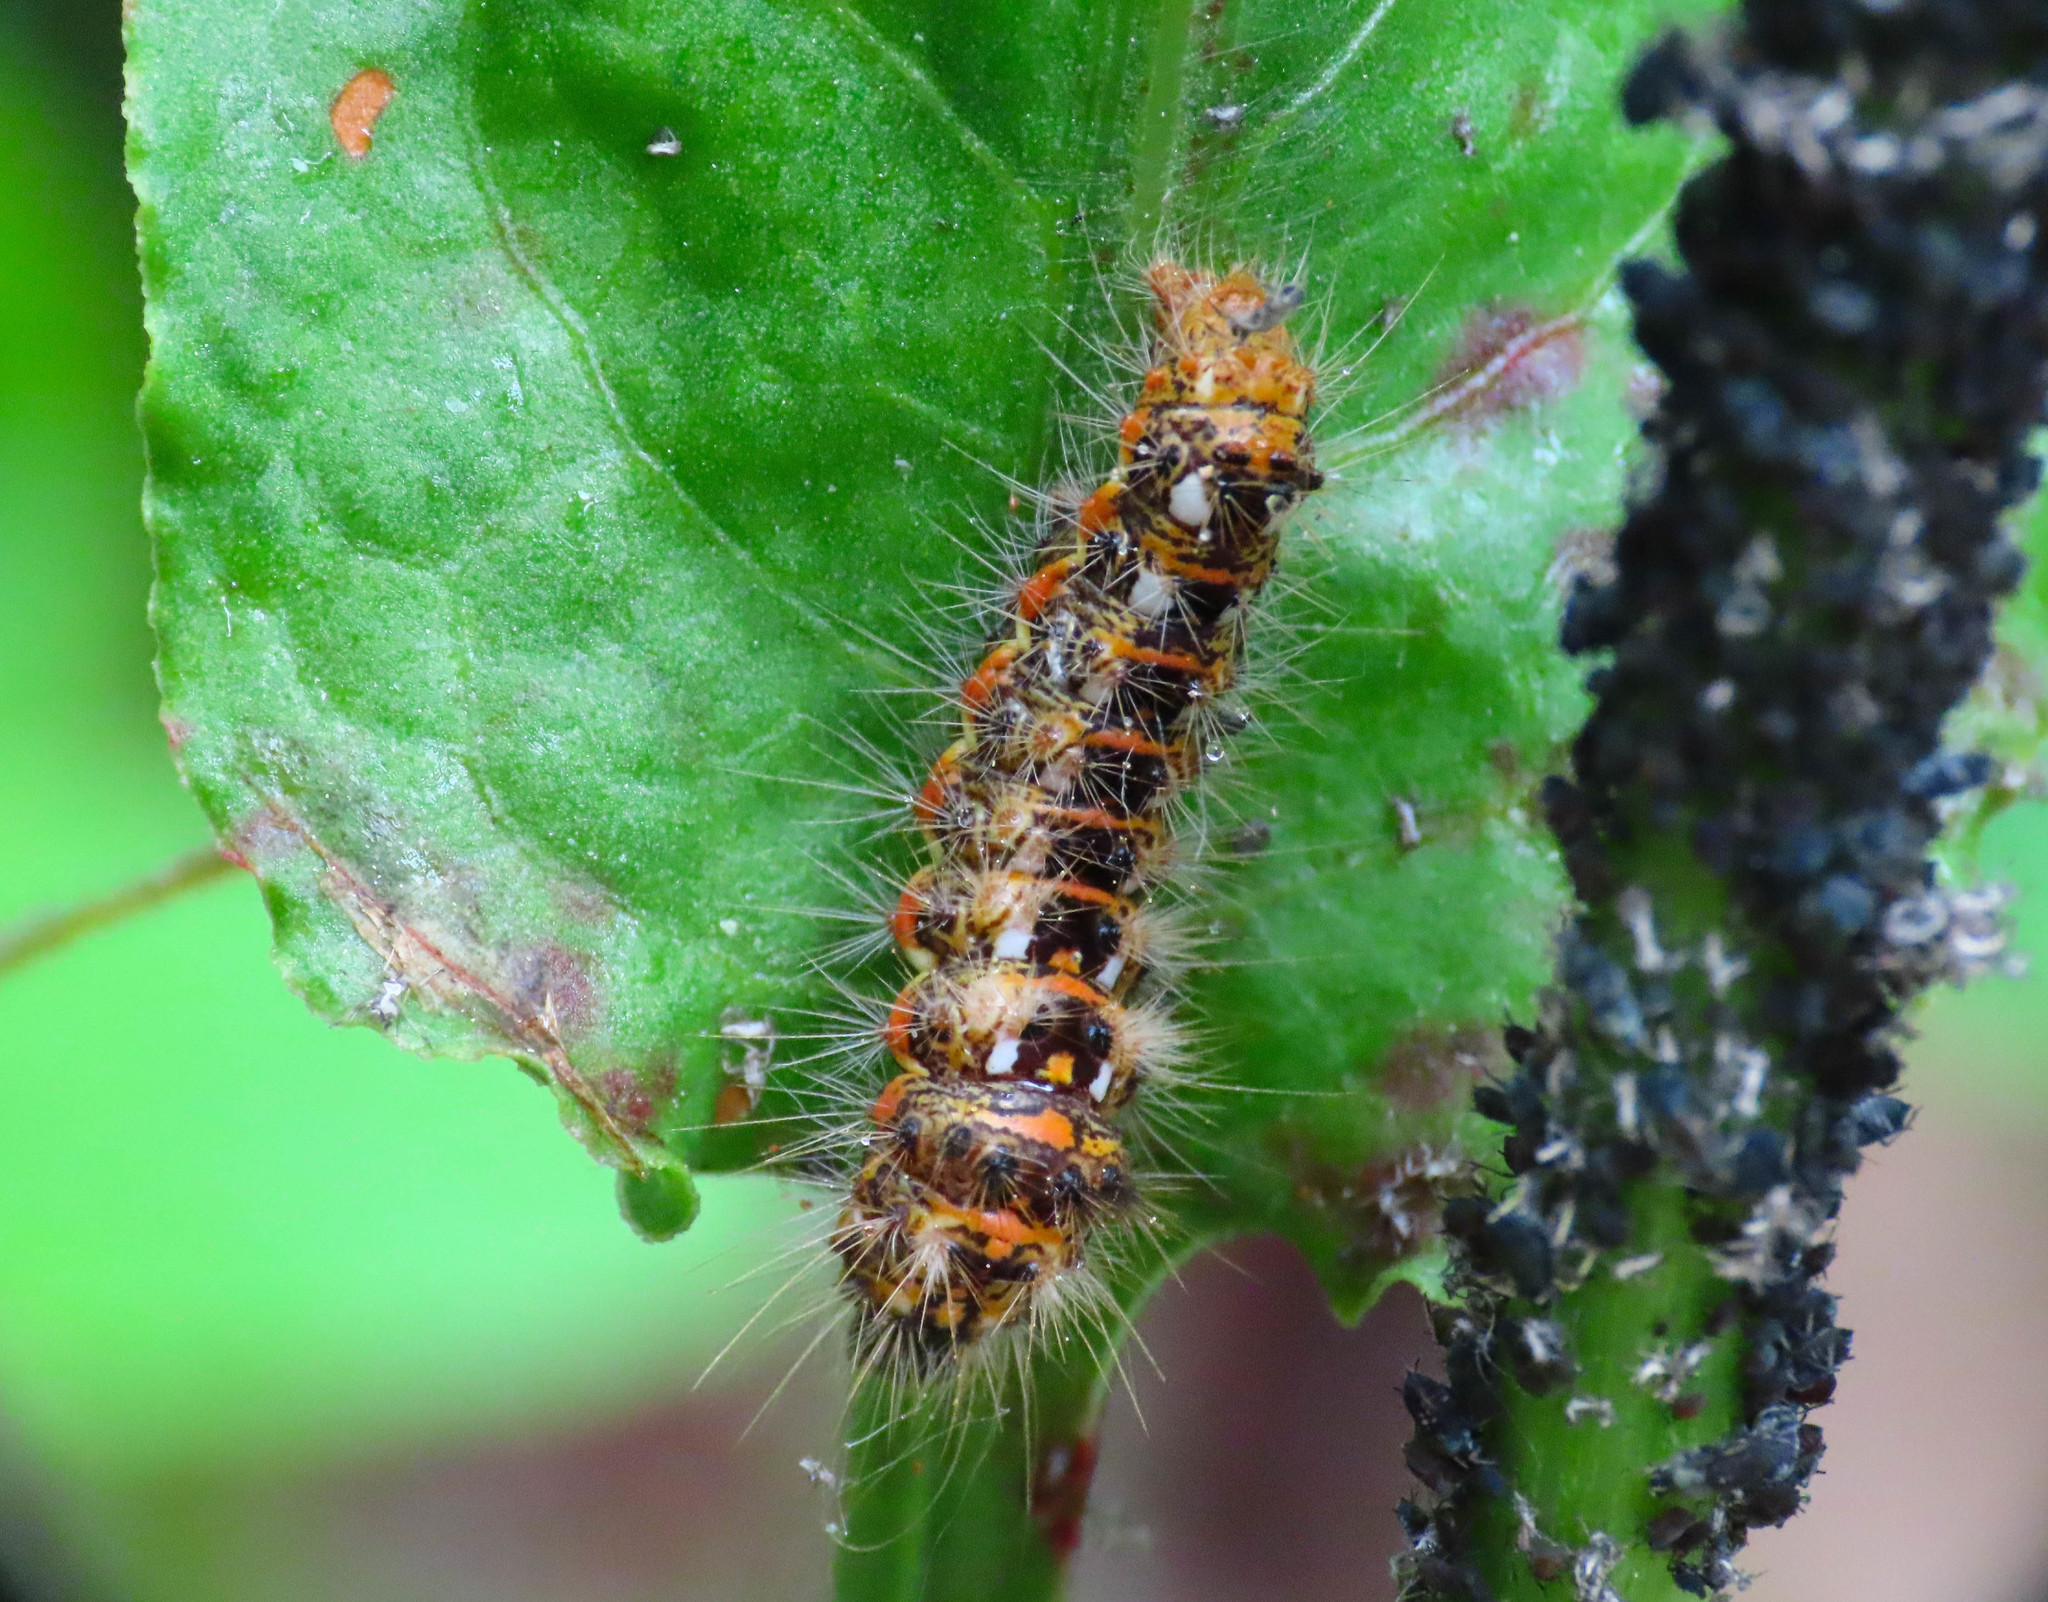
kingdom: Animalia
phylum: Arthropoda
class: Insecta
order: Lepidoptera
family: Noctuidae
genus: Acronicta
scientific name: Acronicta rumicis
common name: Knot grass
